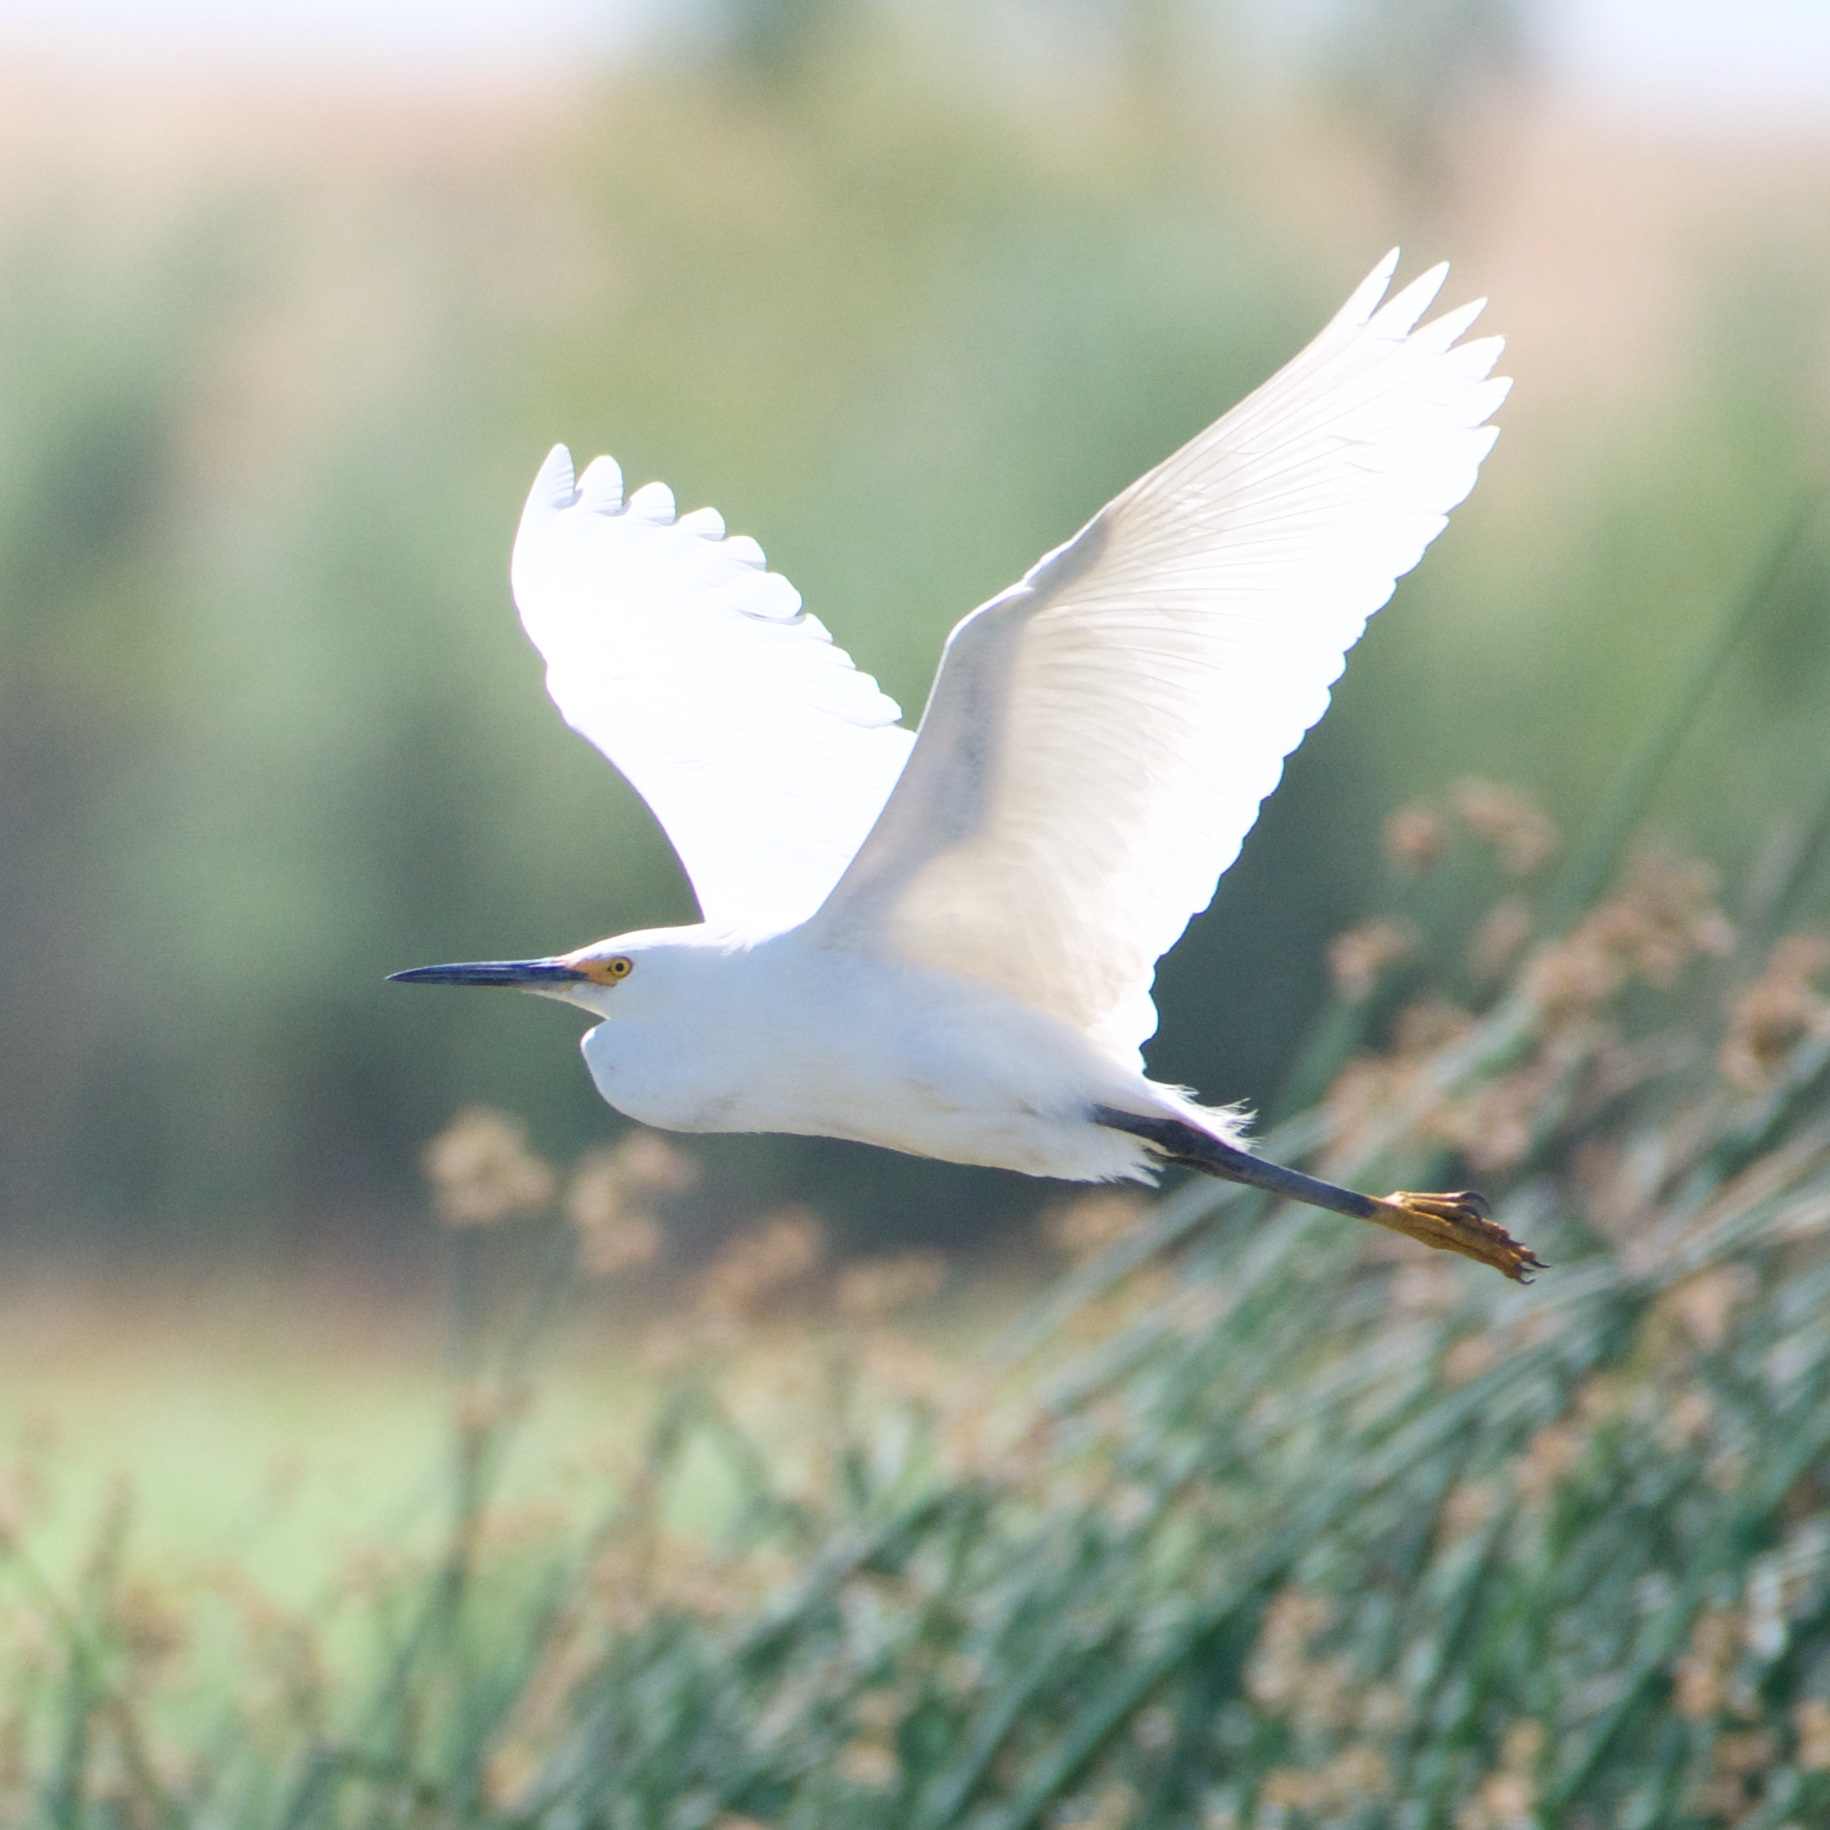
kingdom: Animalia
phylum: Chordata
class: Aves
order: Pelecaniformes
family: Ardeidae
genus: Egretta
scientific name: Egretta thula
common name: Snowy egret
